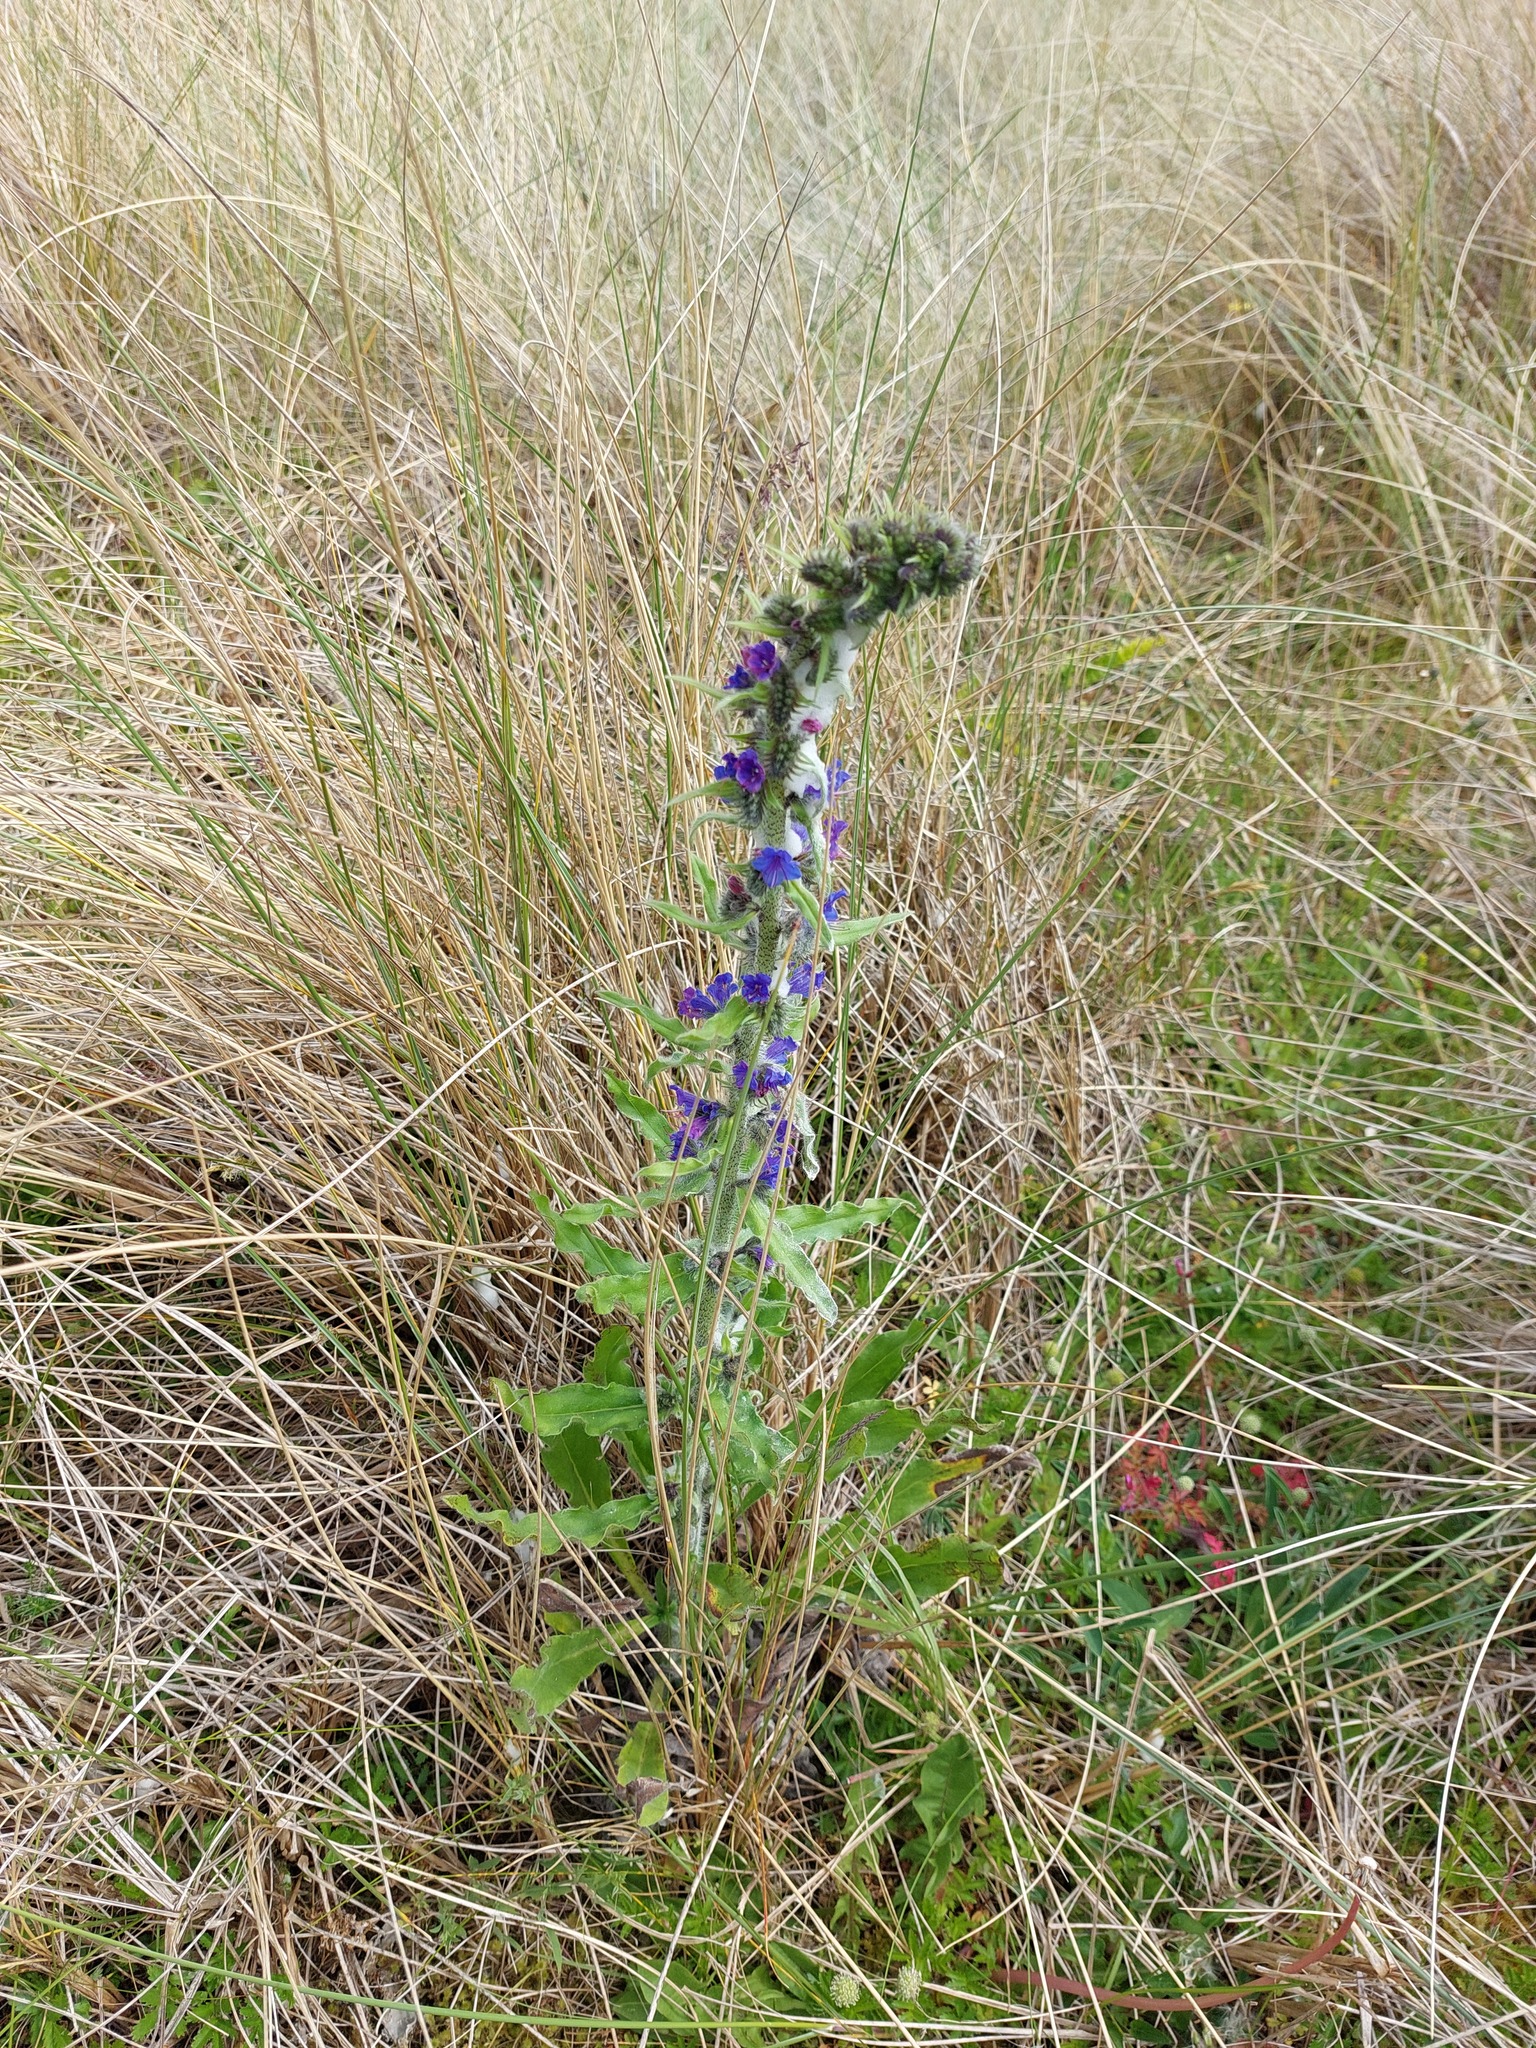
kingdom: Plantae
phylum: Tracheophyta
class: Magnoliopsida
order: Boraginales
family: Boraginaceae
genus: Echium
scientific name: Echium vulgare
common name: Common viper's bugloss
